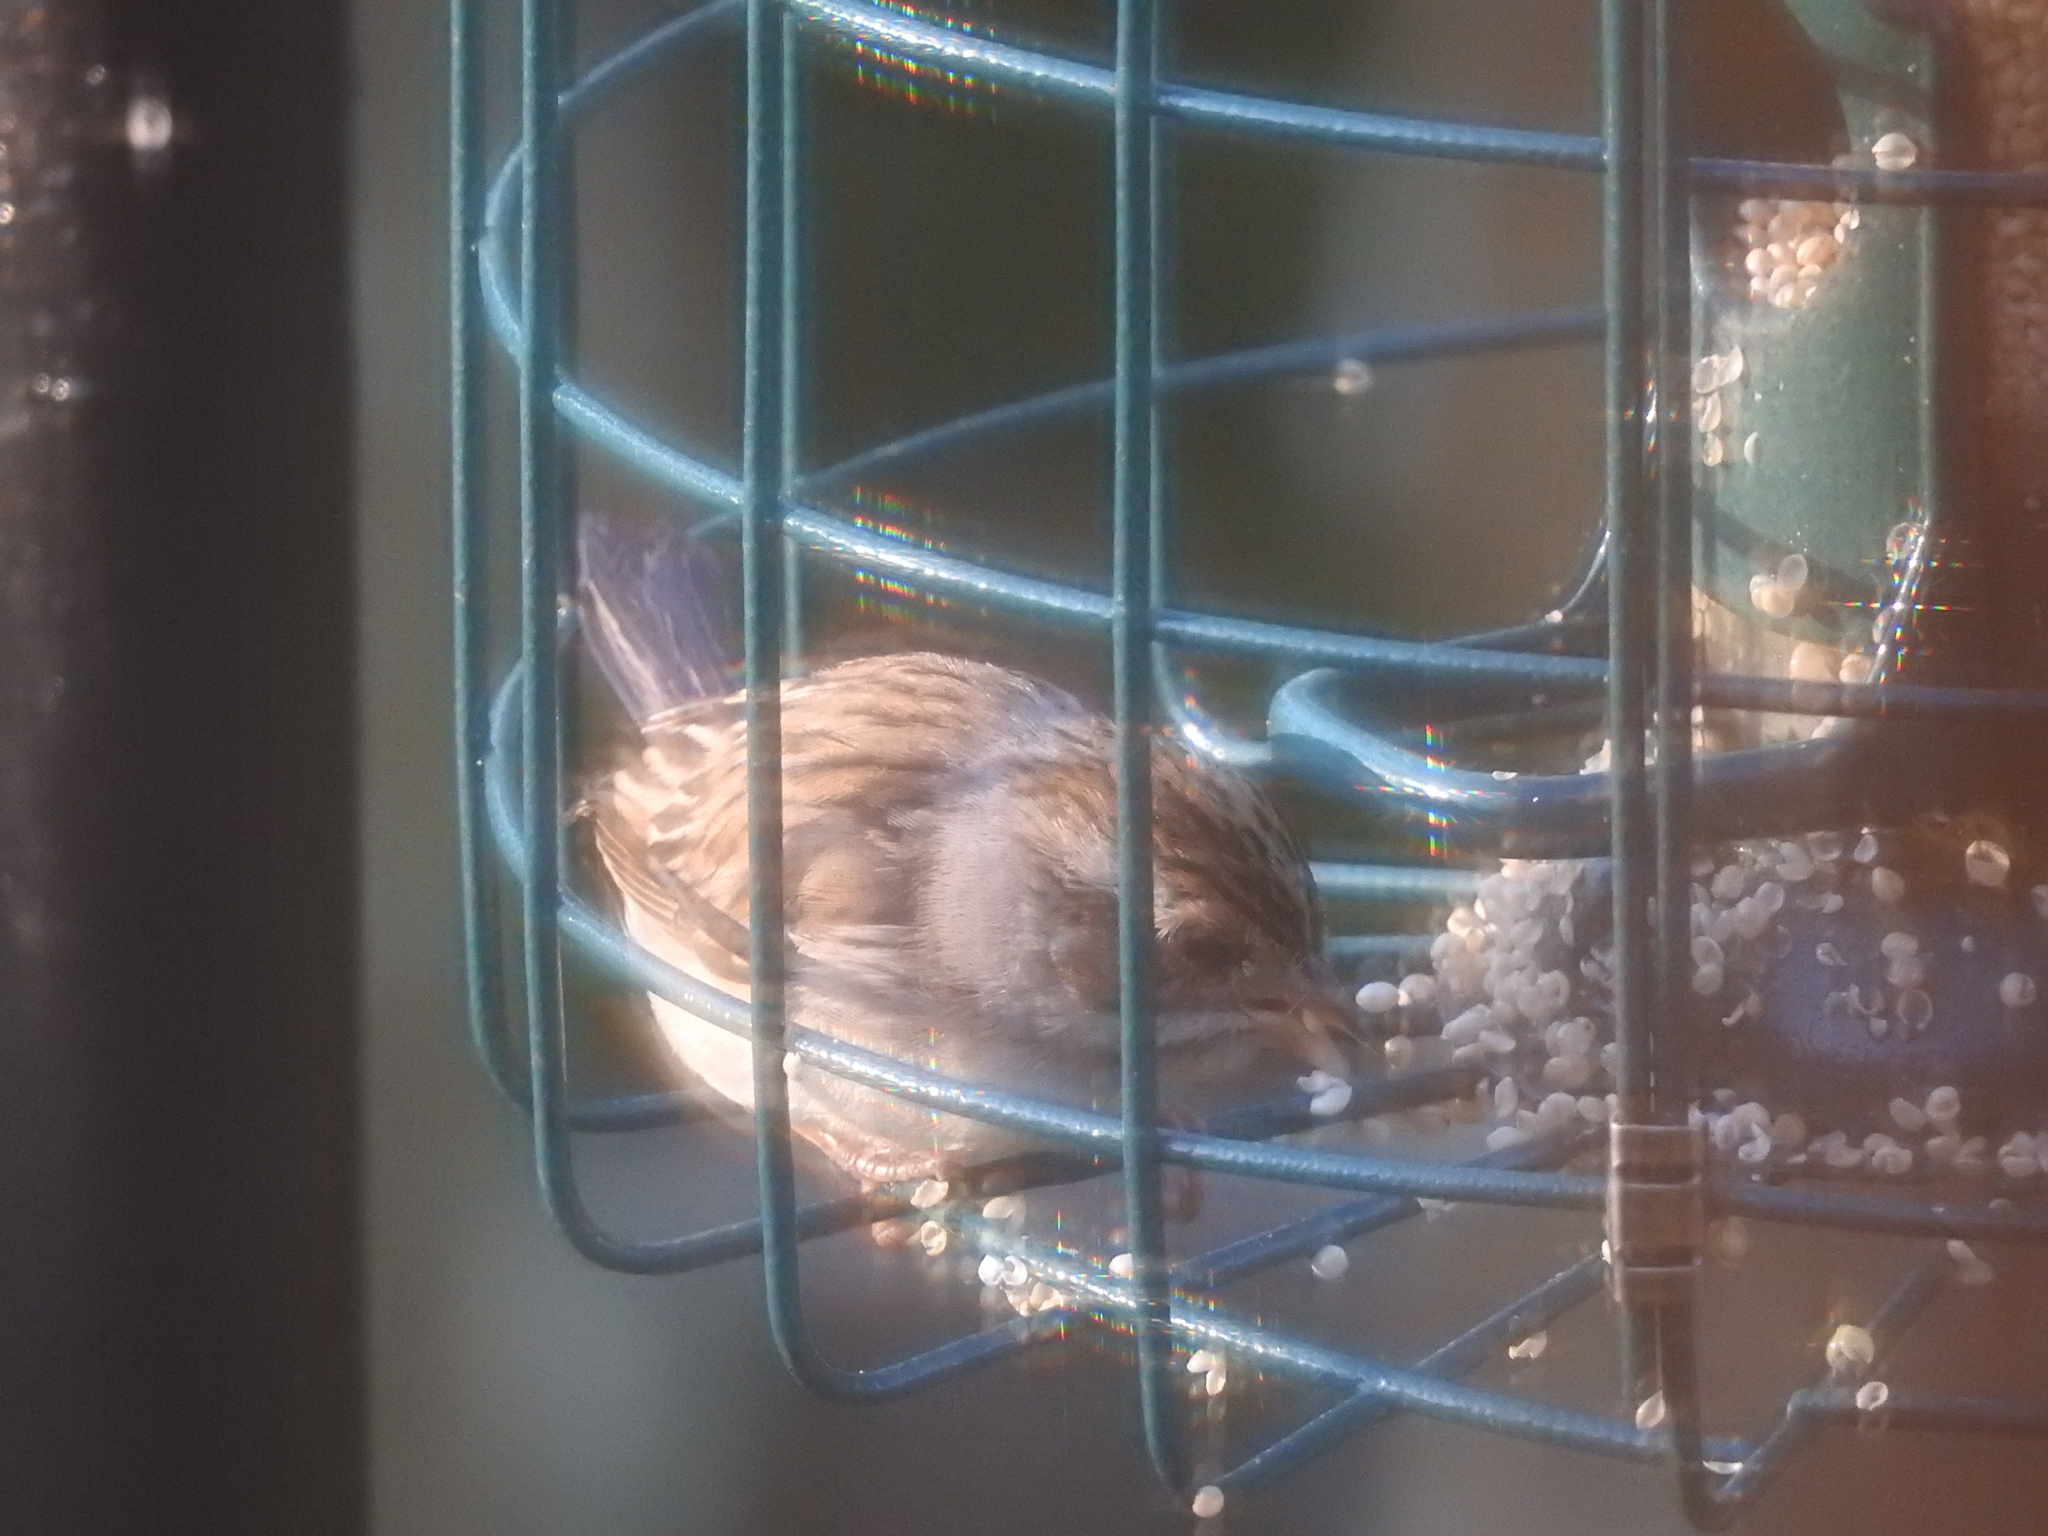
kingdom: Animalia
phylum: Chordata
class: Aves
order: Passeriformes
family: Passerellidae
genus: Spizella
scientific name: Spizella pallida
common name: Clay-colored sparrow
